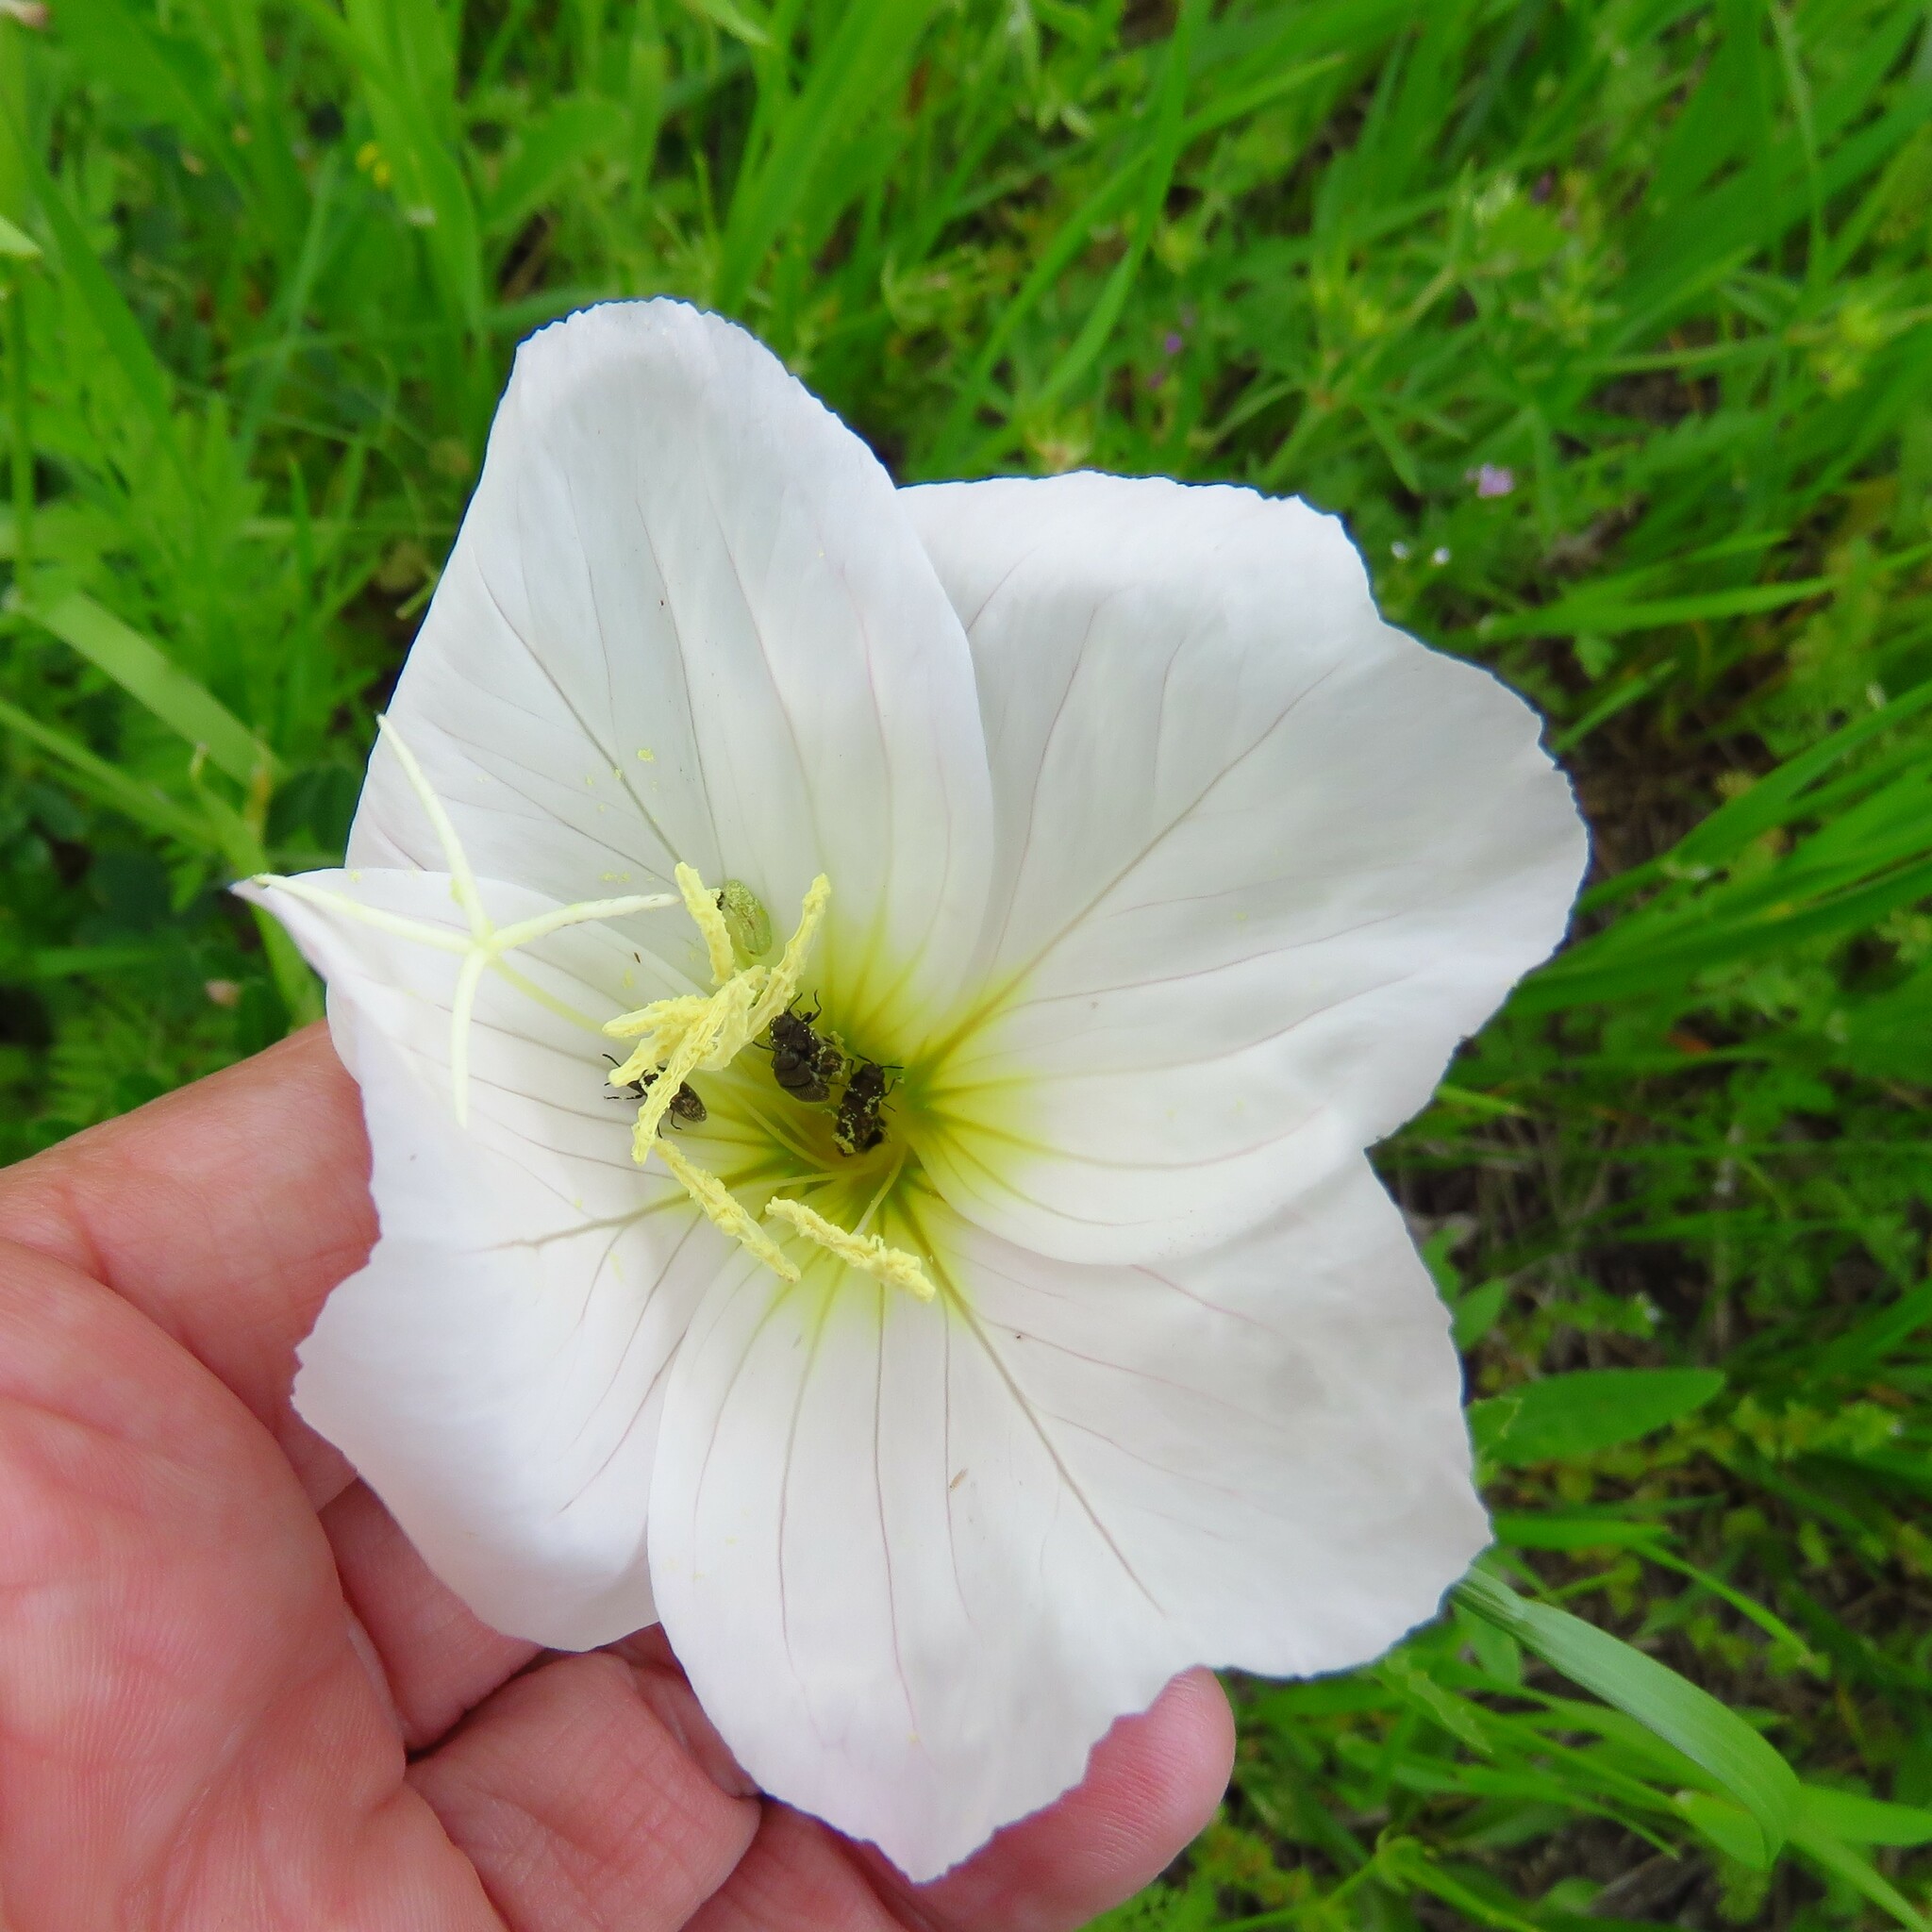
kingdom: Plantae
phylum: Tracheophyta
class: Magnoliopsida
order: Myrtales
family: Onagraceae
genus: Oenothera
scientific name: Oenothera speciosa
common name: White evening-primrose
